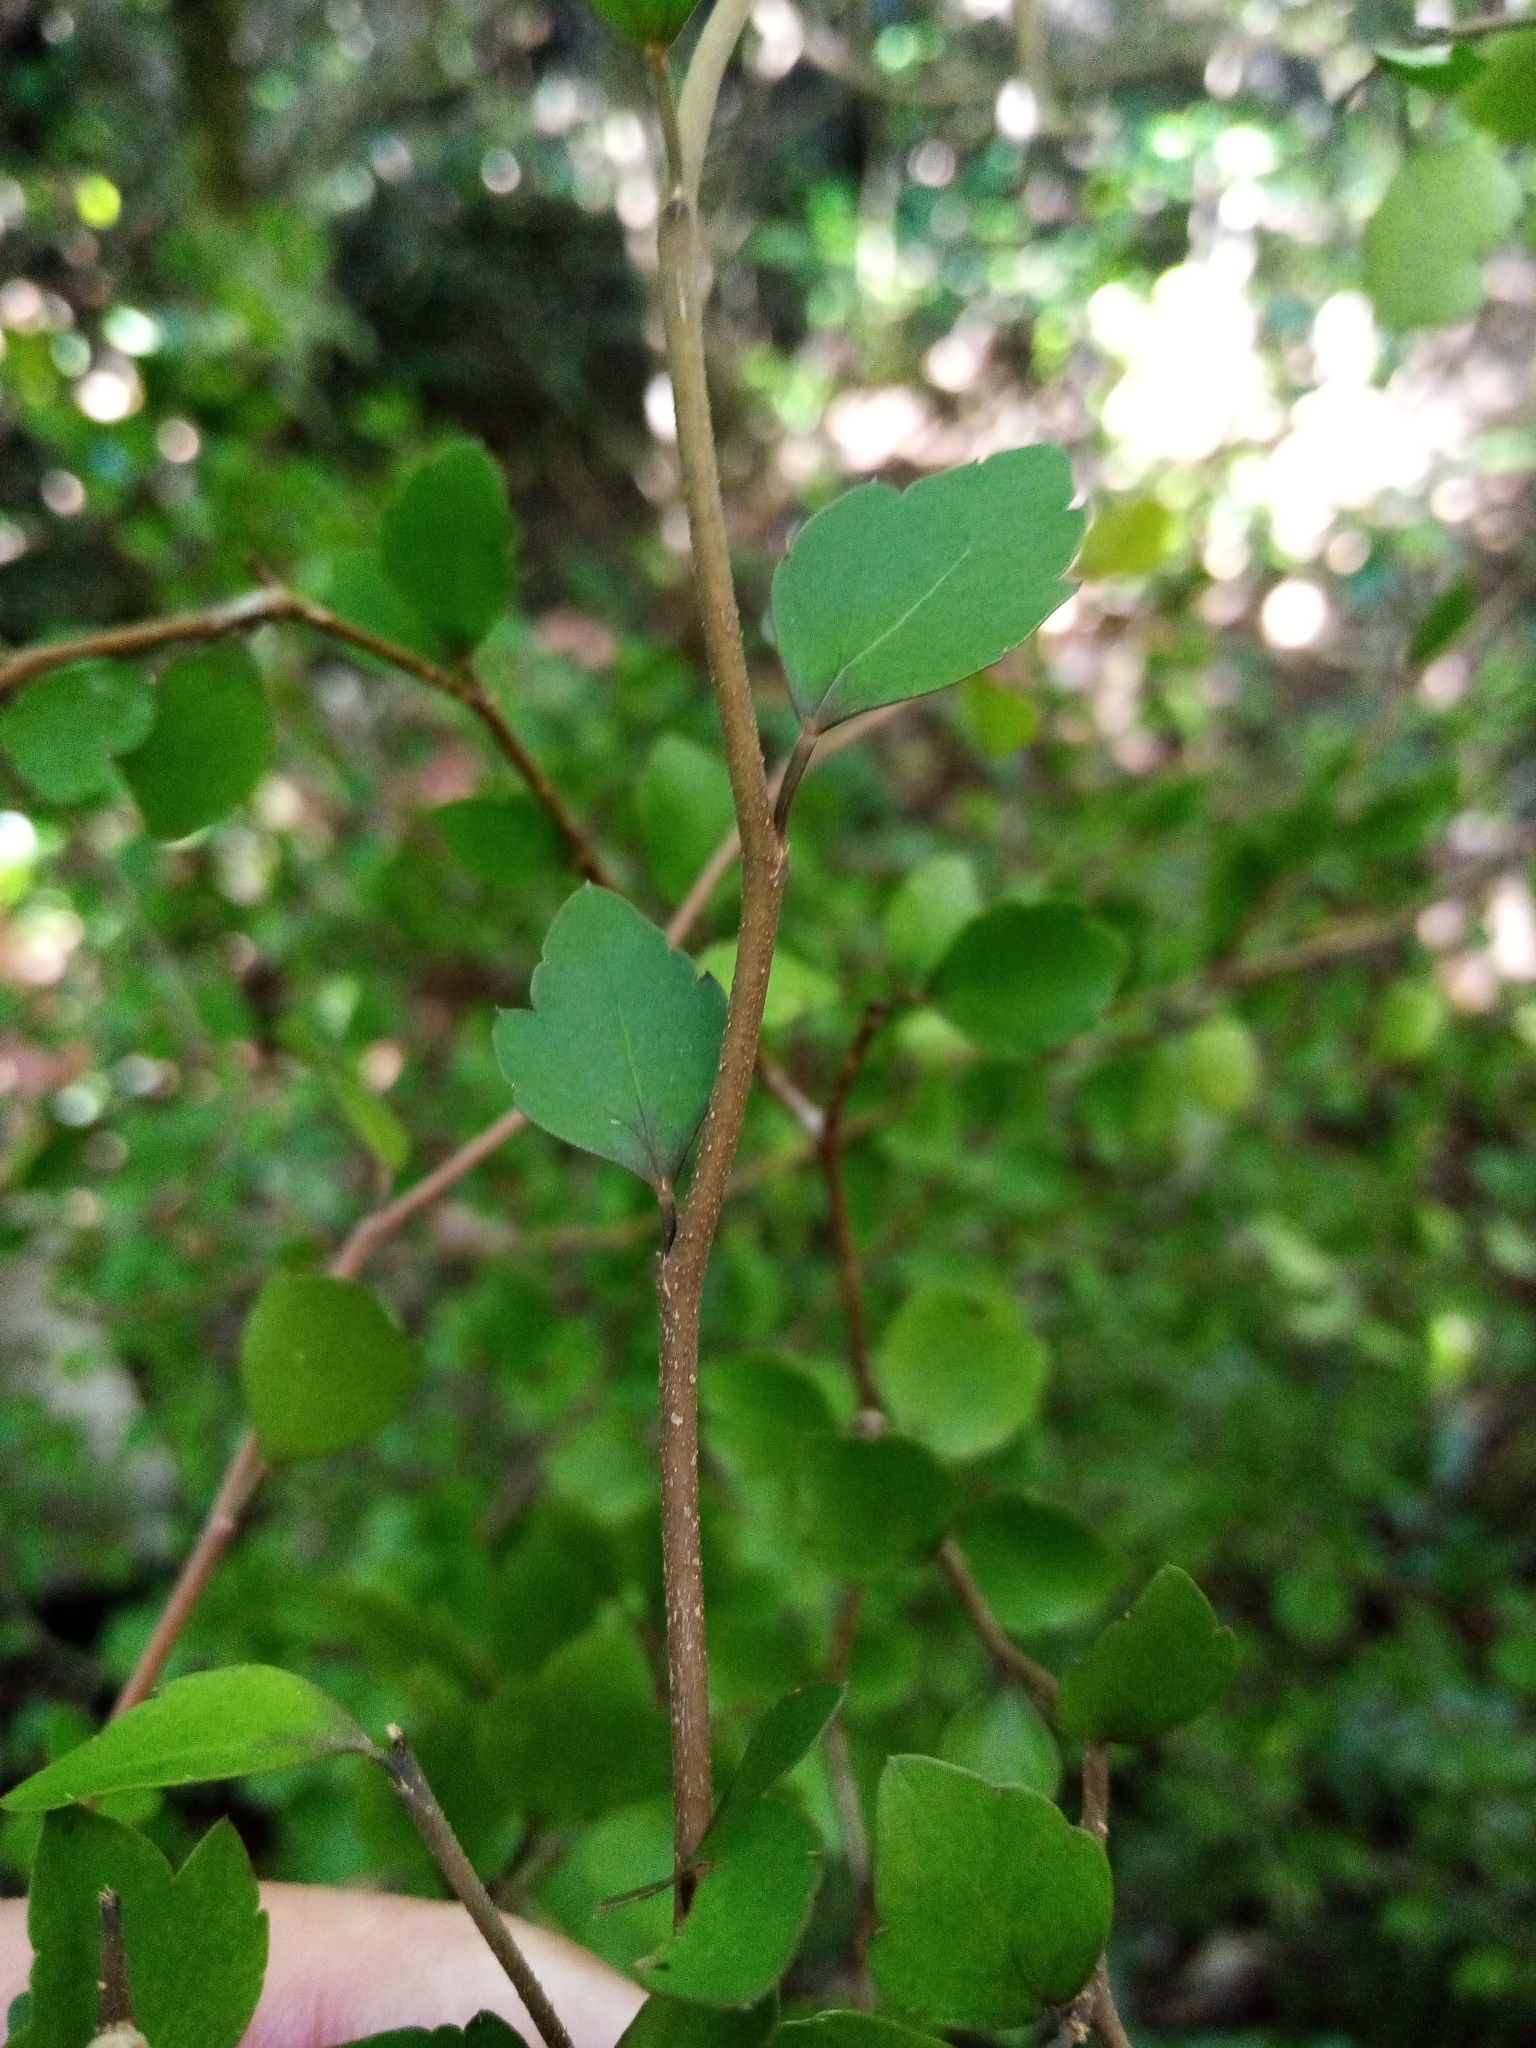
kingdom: Plantae
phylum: Tracheophyta
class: Magnoliopsida
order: Apiales
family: Araliaceae
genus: Raukaua
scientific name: Raukaua anomalus
